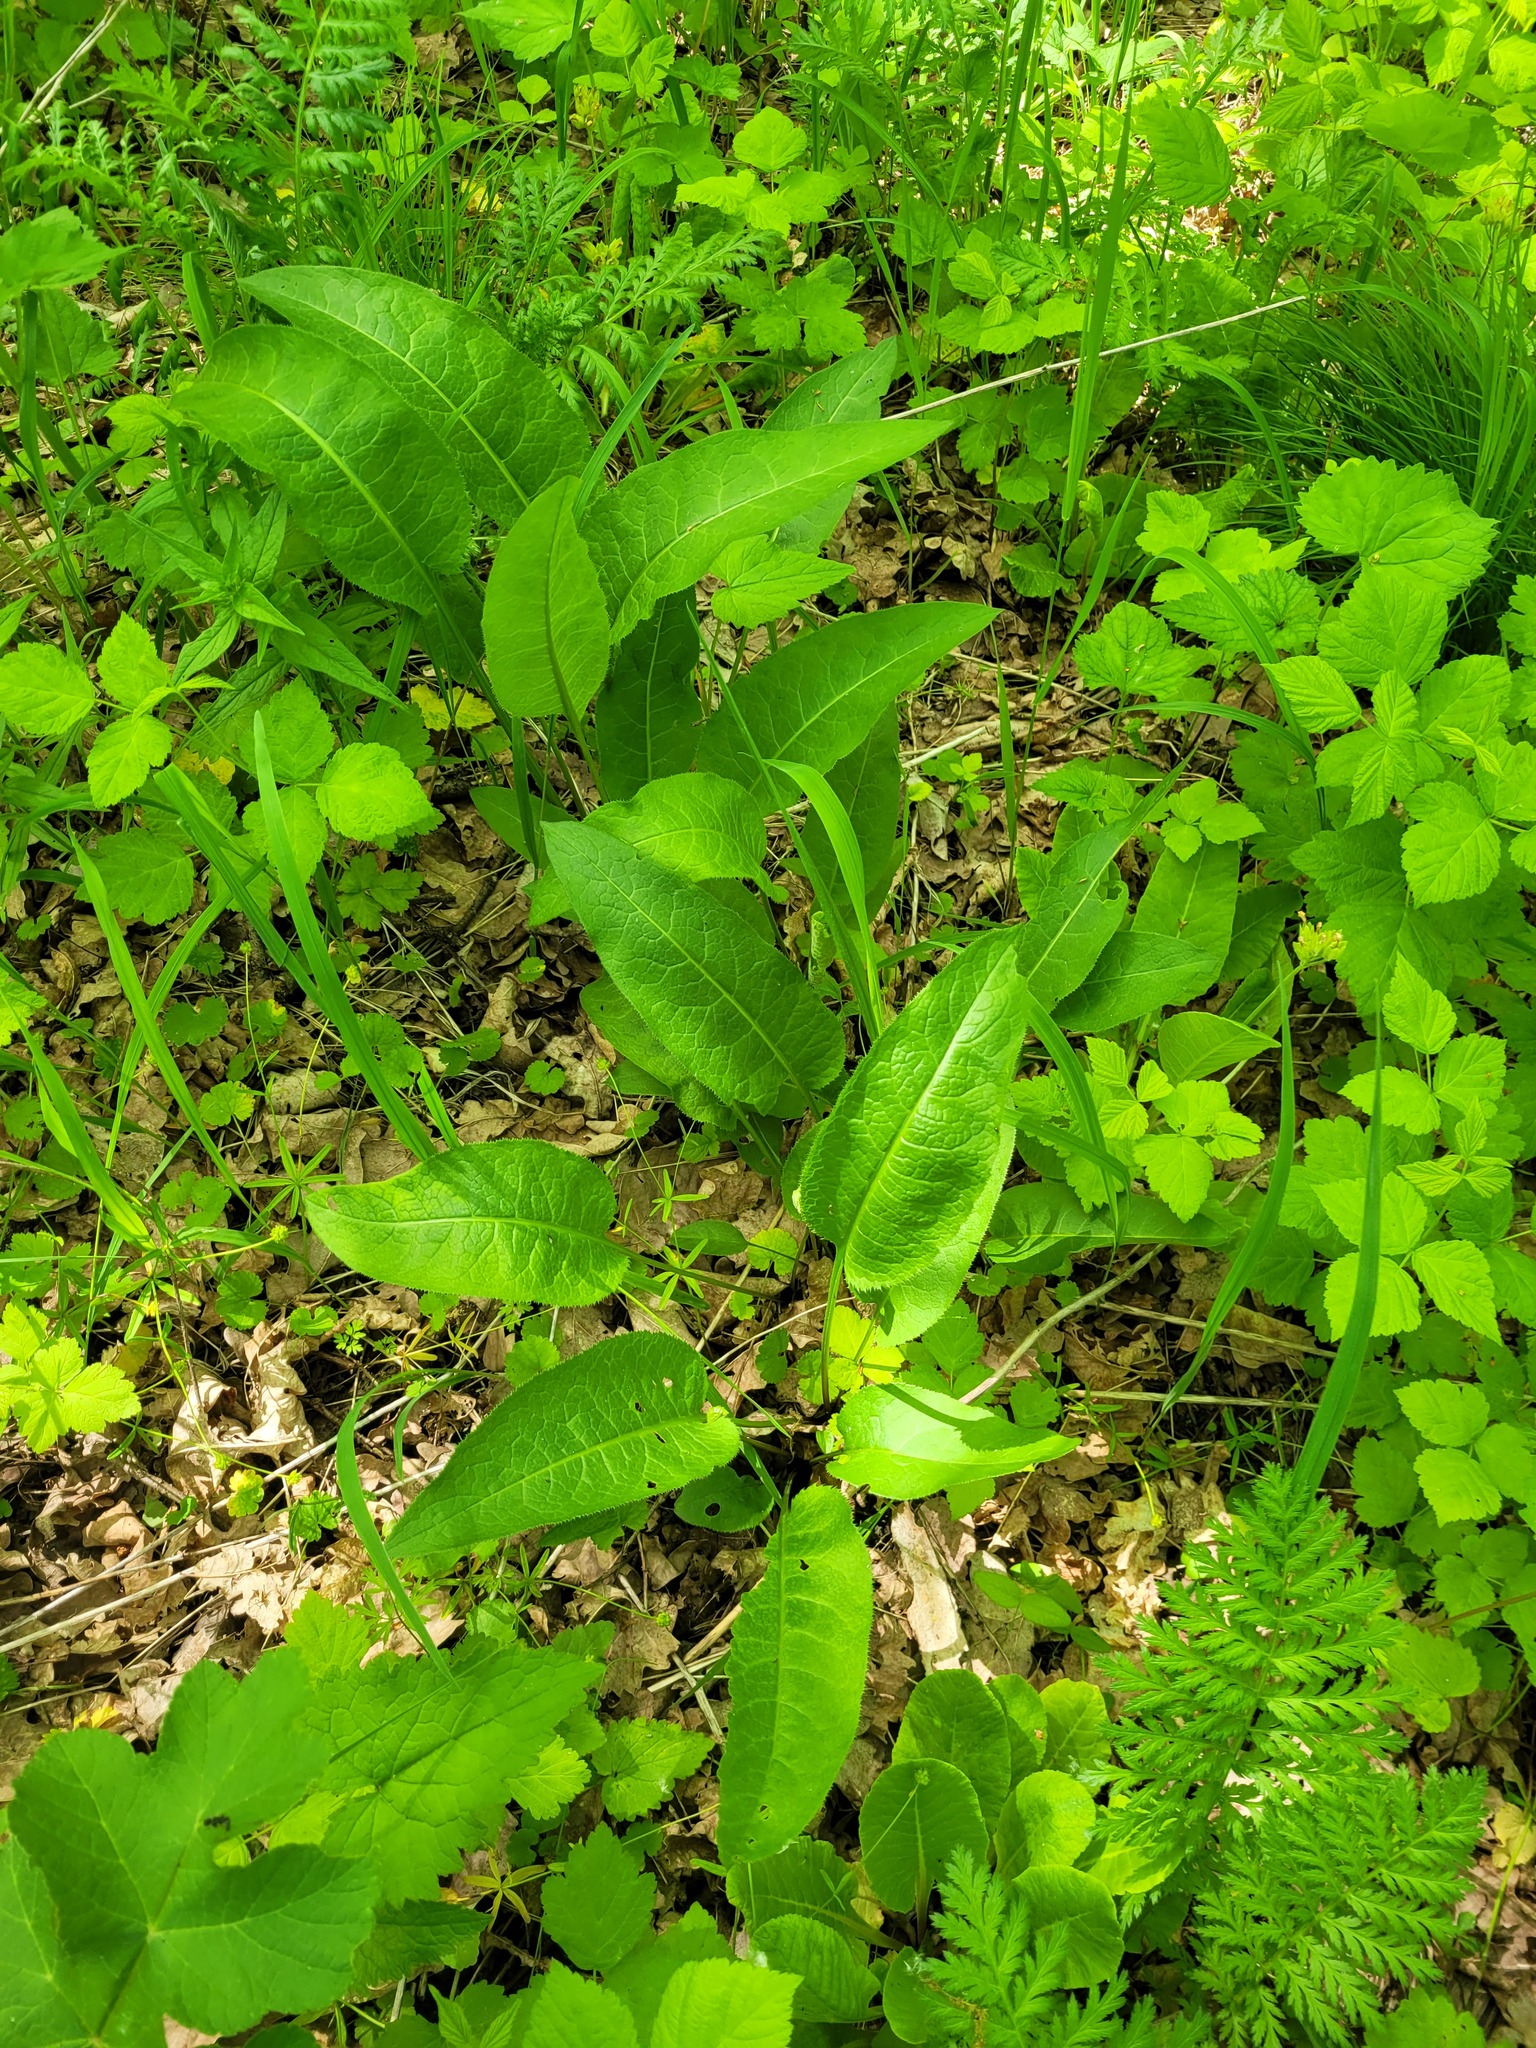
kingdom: Plantae
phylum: Tracheophyta
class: Magnoliopsida
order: Asterales
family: Asteraceae
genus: Serratula
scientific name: Serratula tinctoria
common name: Saw-wort
